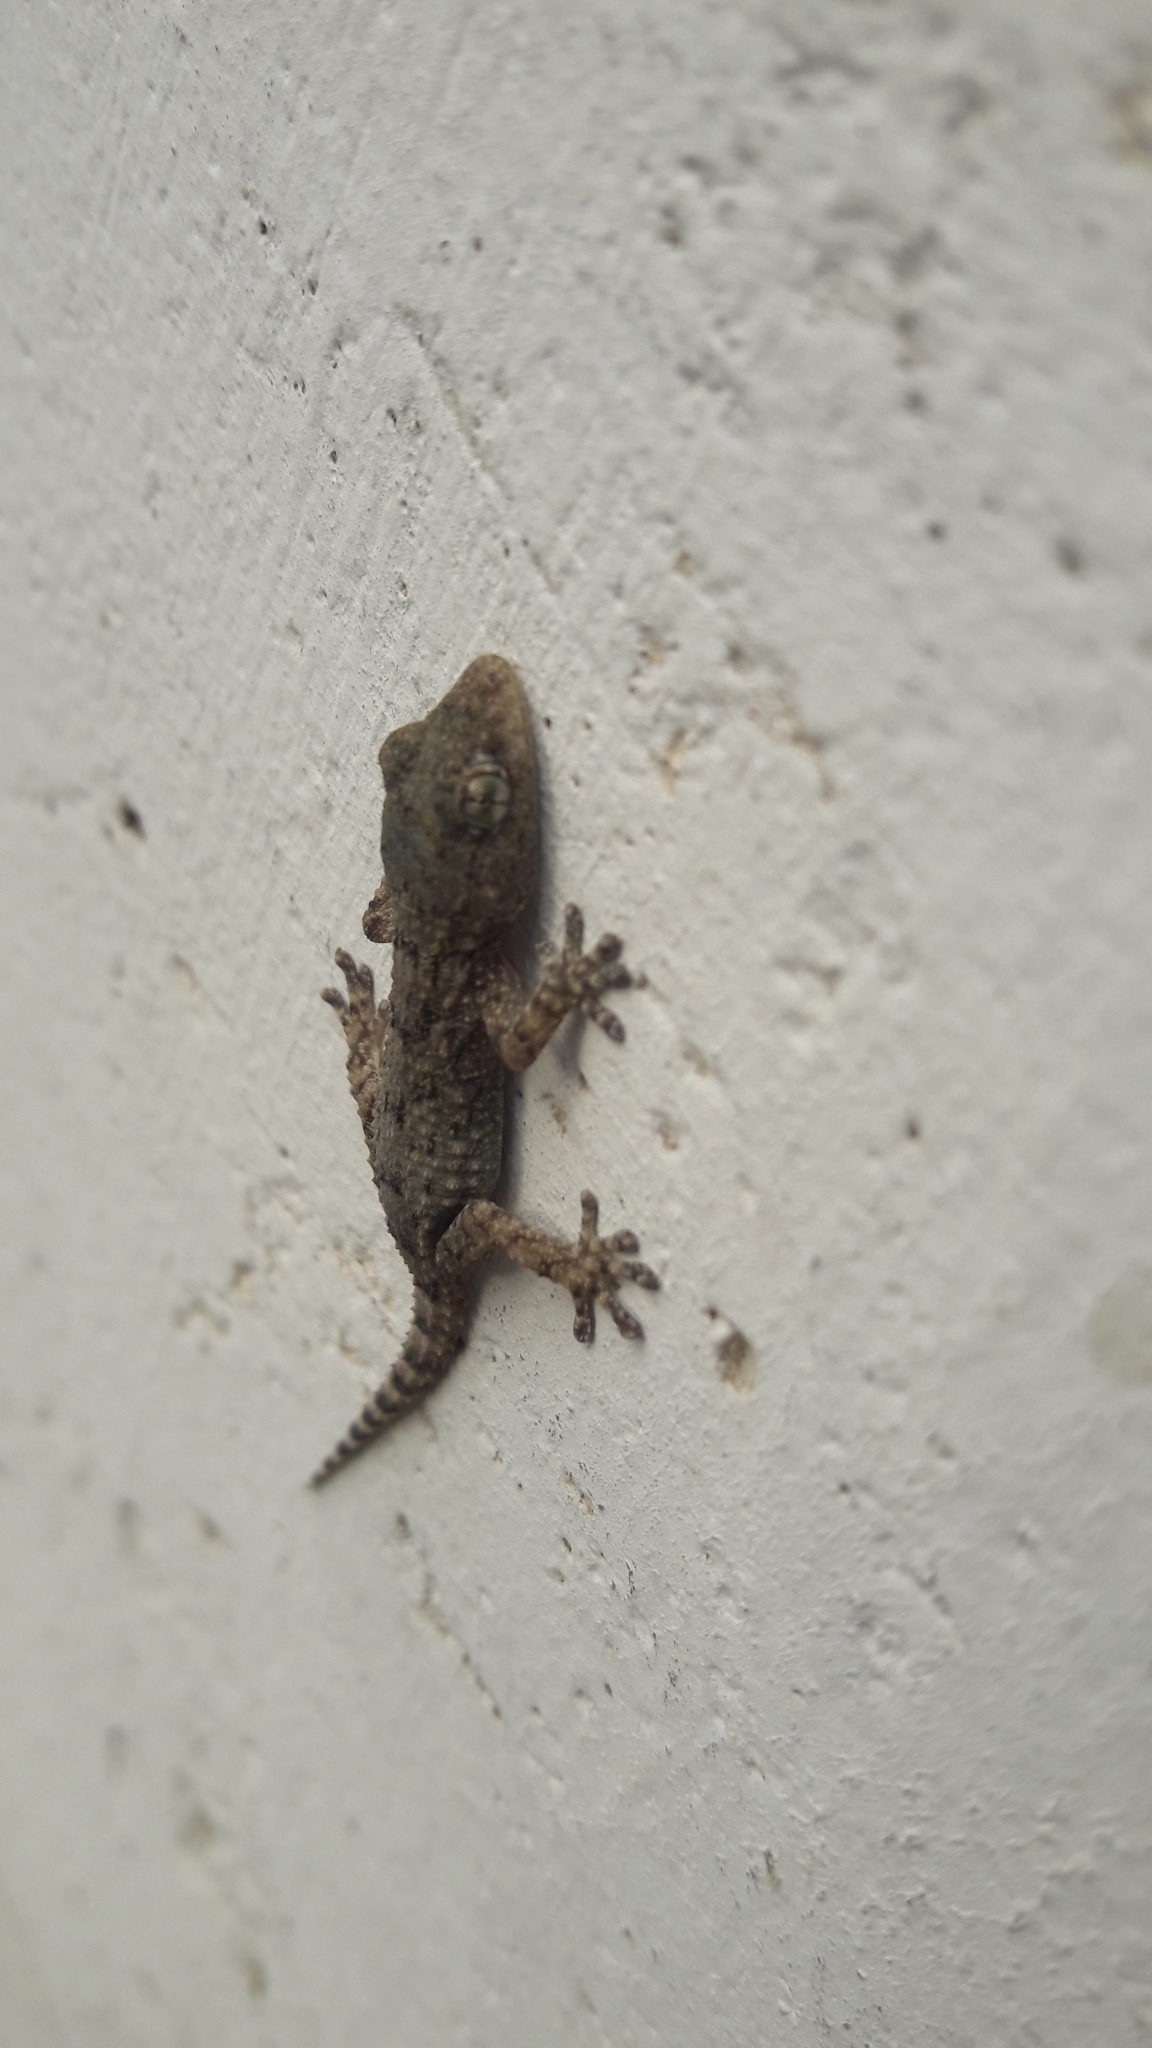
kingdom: Animalia
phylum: Chordata
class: Squamata
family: Phyllodactylidae
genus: Tarentola
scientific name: Tarentola mauritanica
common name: Moorish gecko
